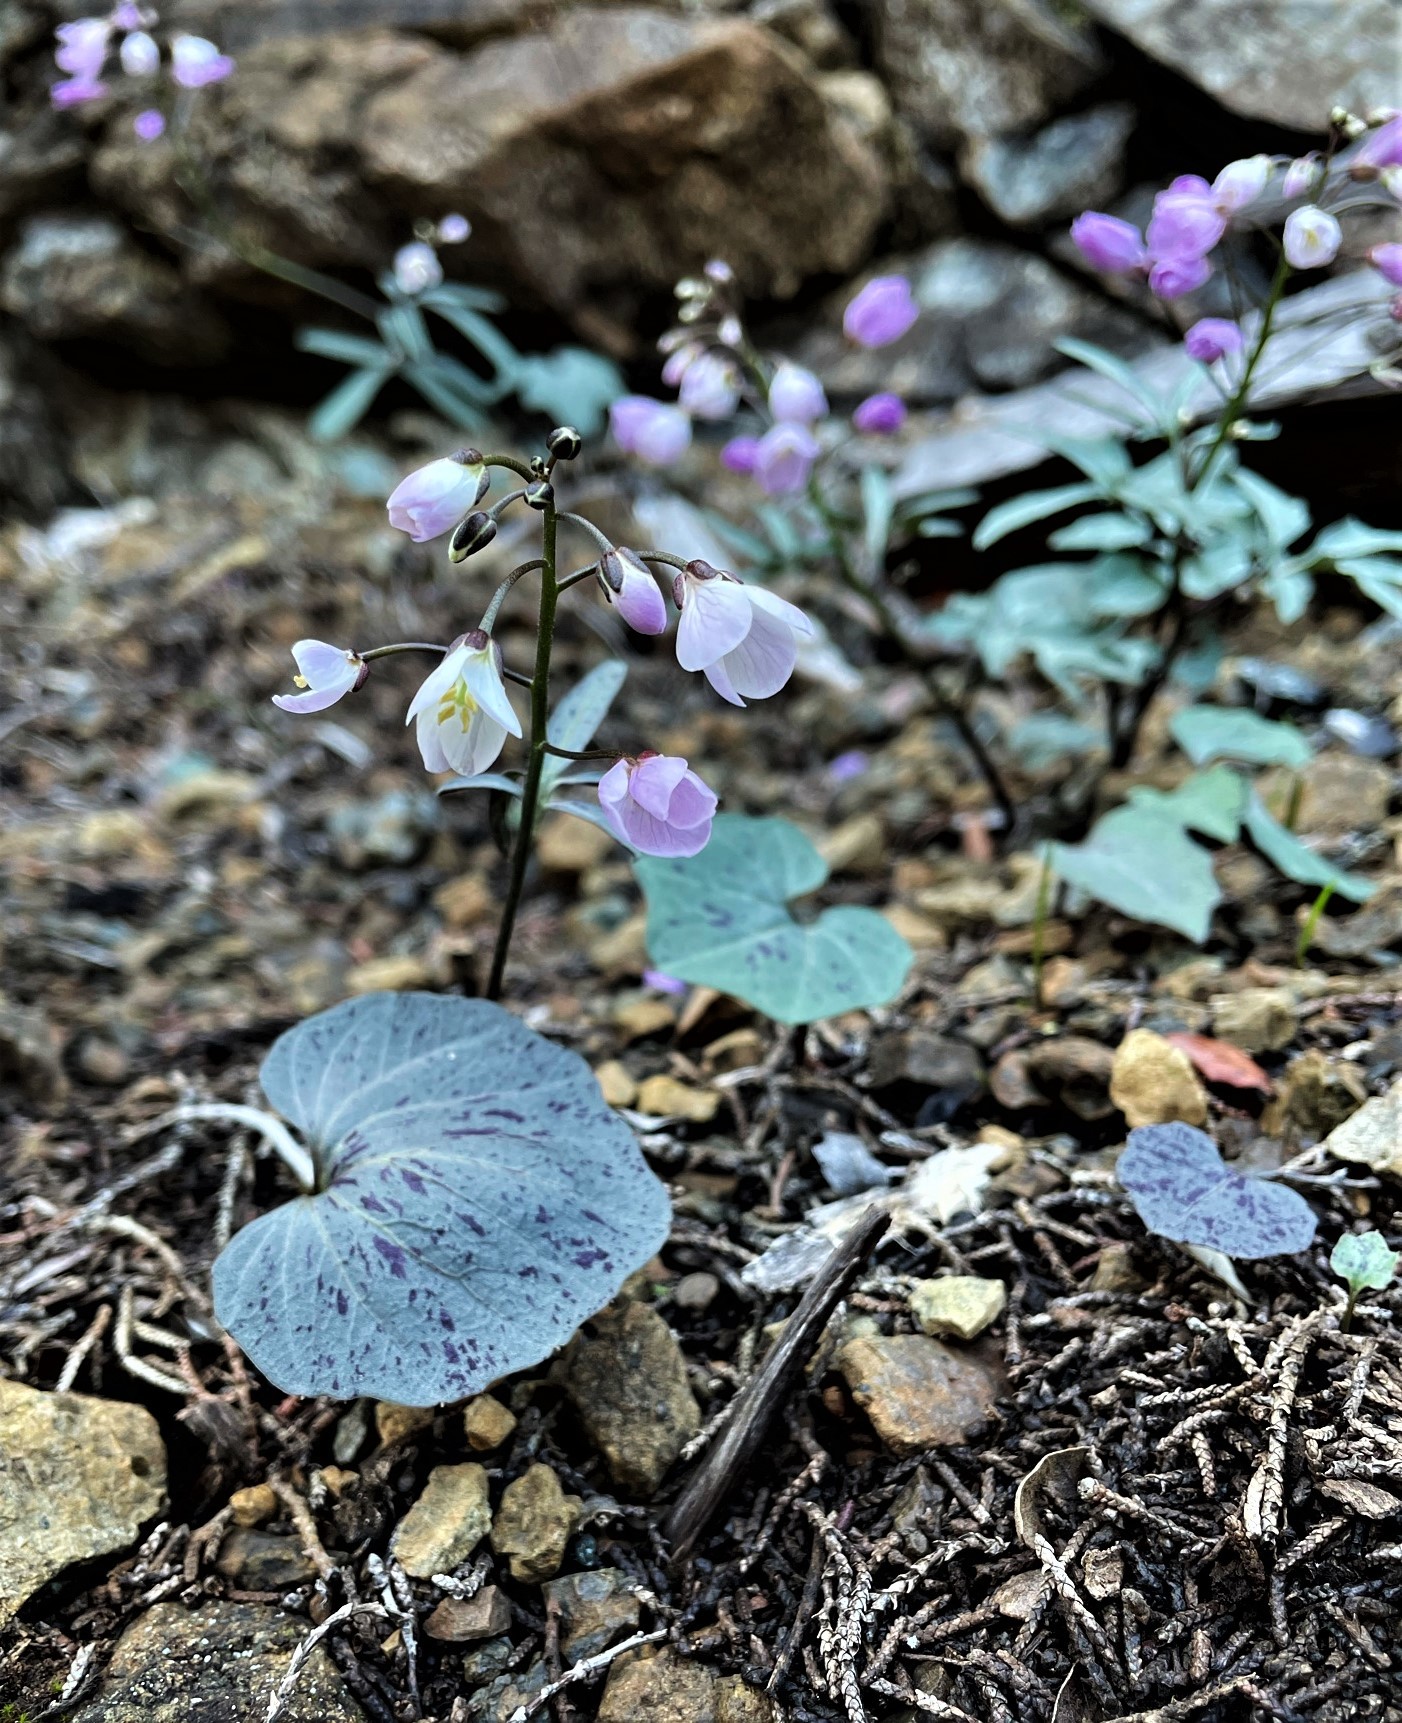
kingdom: Plantae
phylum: Tracheophyta
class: Magnoliopsida
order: Brassicales
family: Brassicaceae
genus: Cardamine
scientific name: Cardamine californica
